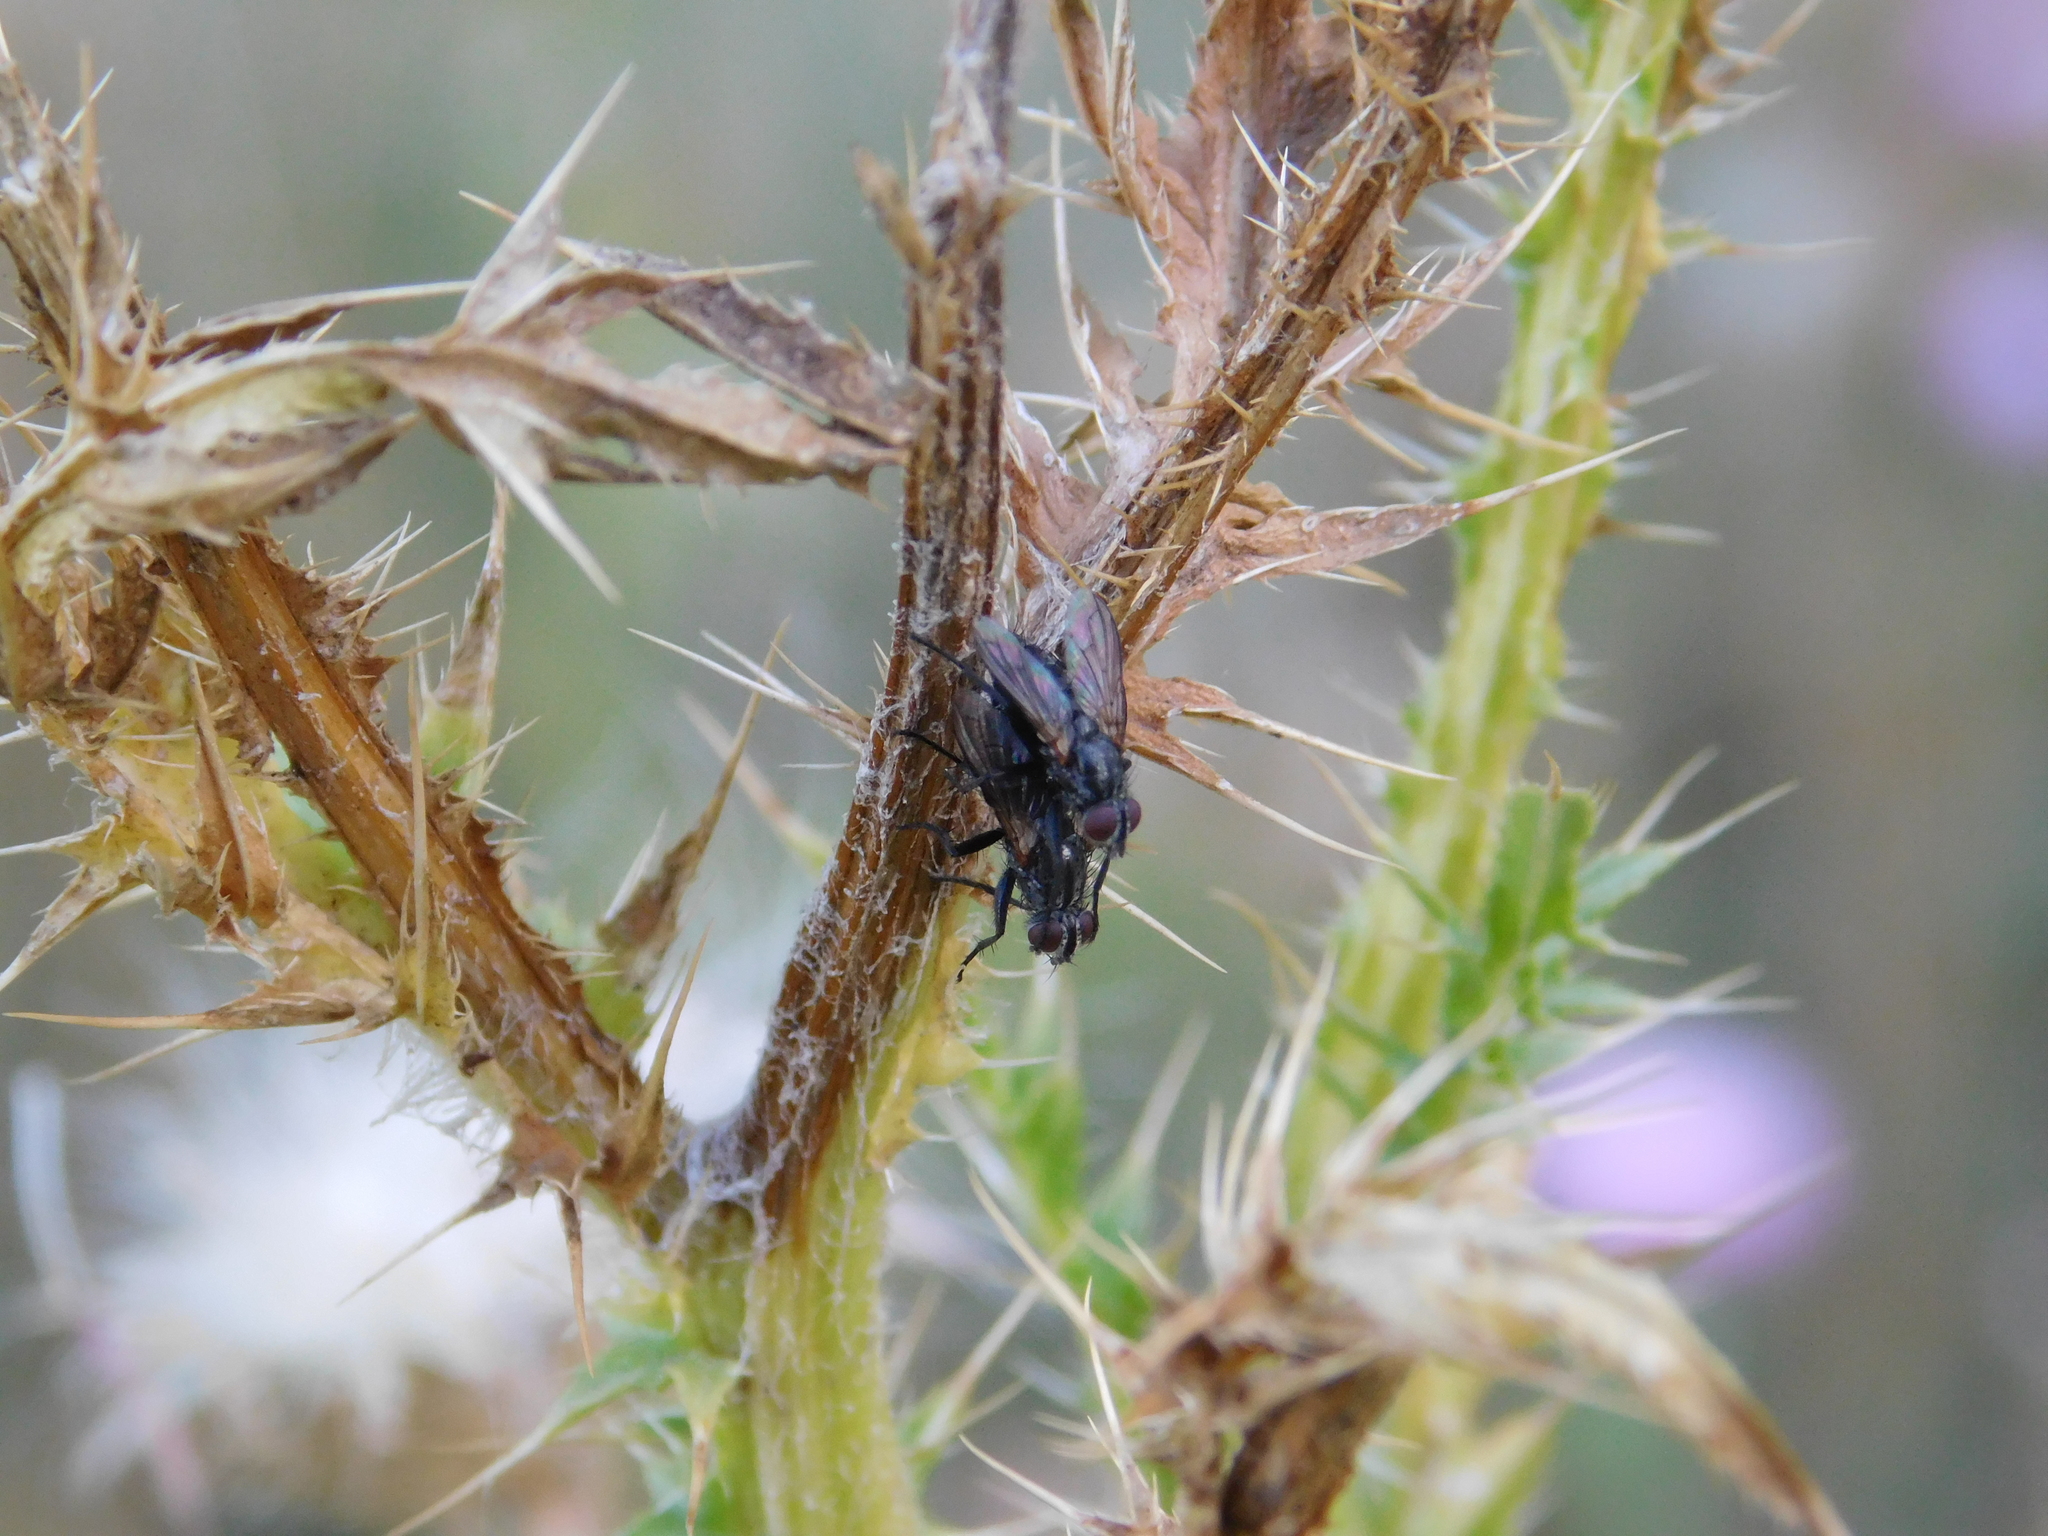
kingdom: Animalia
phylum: Arthropoda
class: Insecta
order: Diptera
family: Calliphoridae
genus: Stevenia
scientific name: Stevenia deceptoria
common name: Grizzled woodlouse-fly
